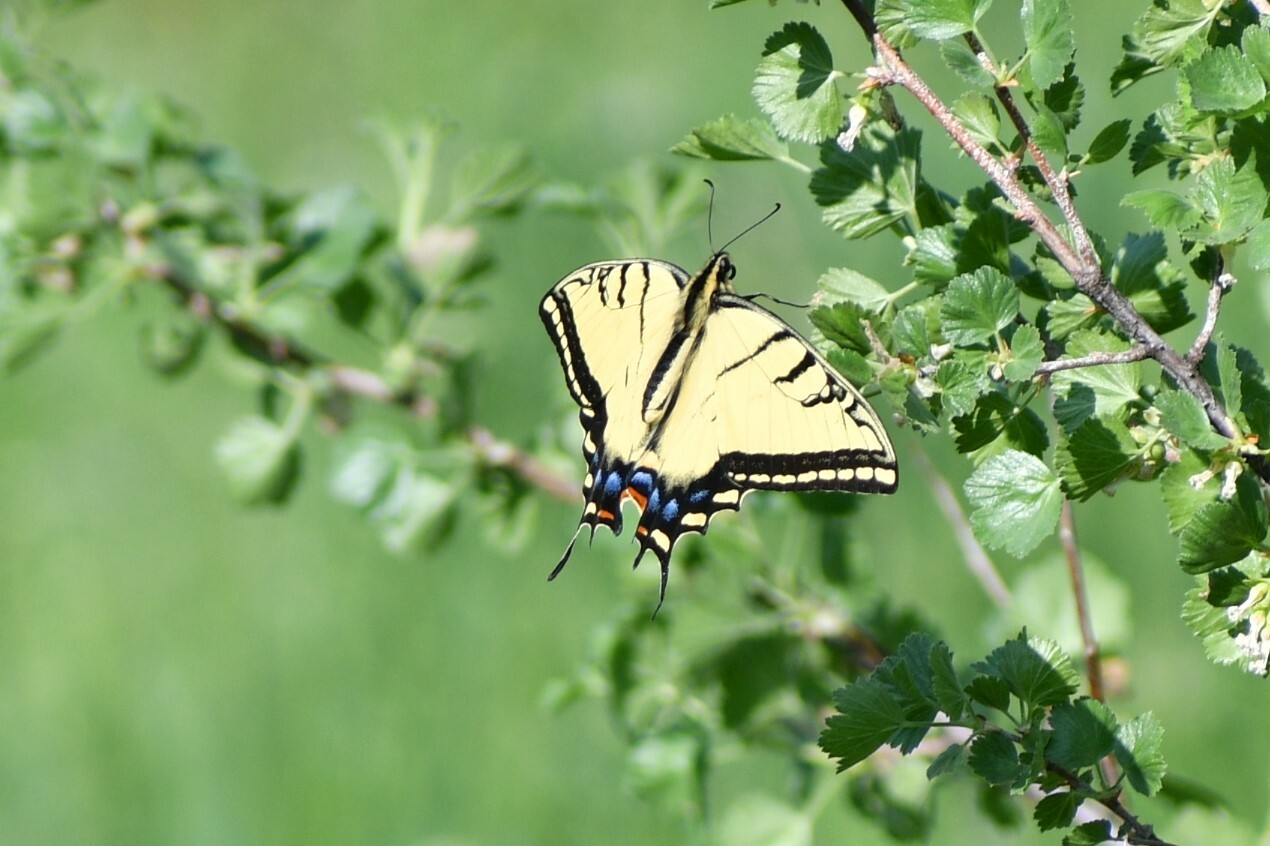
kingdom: Animalia
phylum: Arthropoda
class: Insecta
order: Lepidoptera
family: Papilionidae
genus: Papilio
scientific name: Papilio multicaudata
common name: Two-tailed tiger swallowtail
